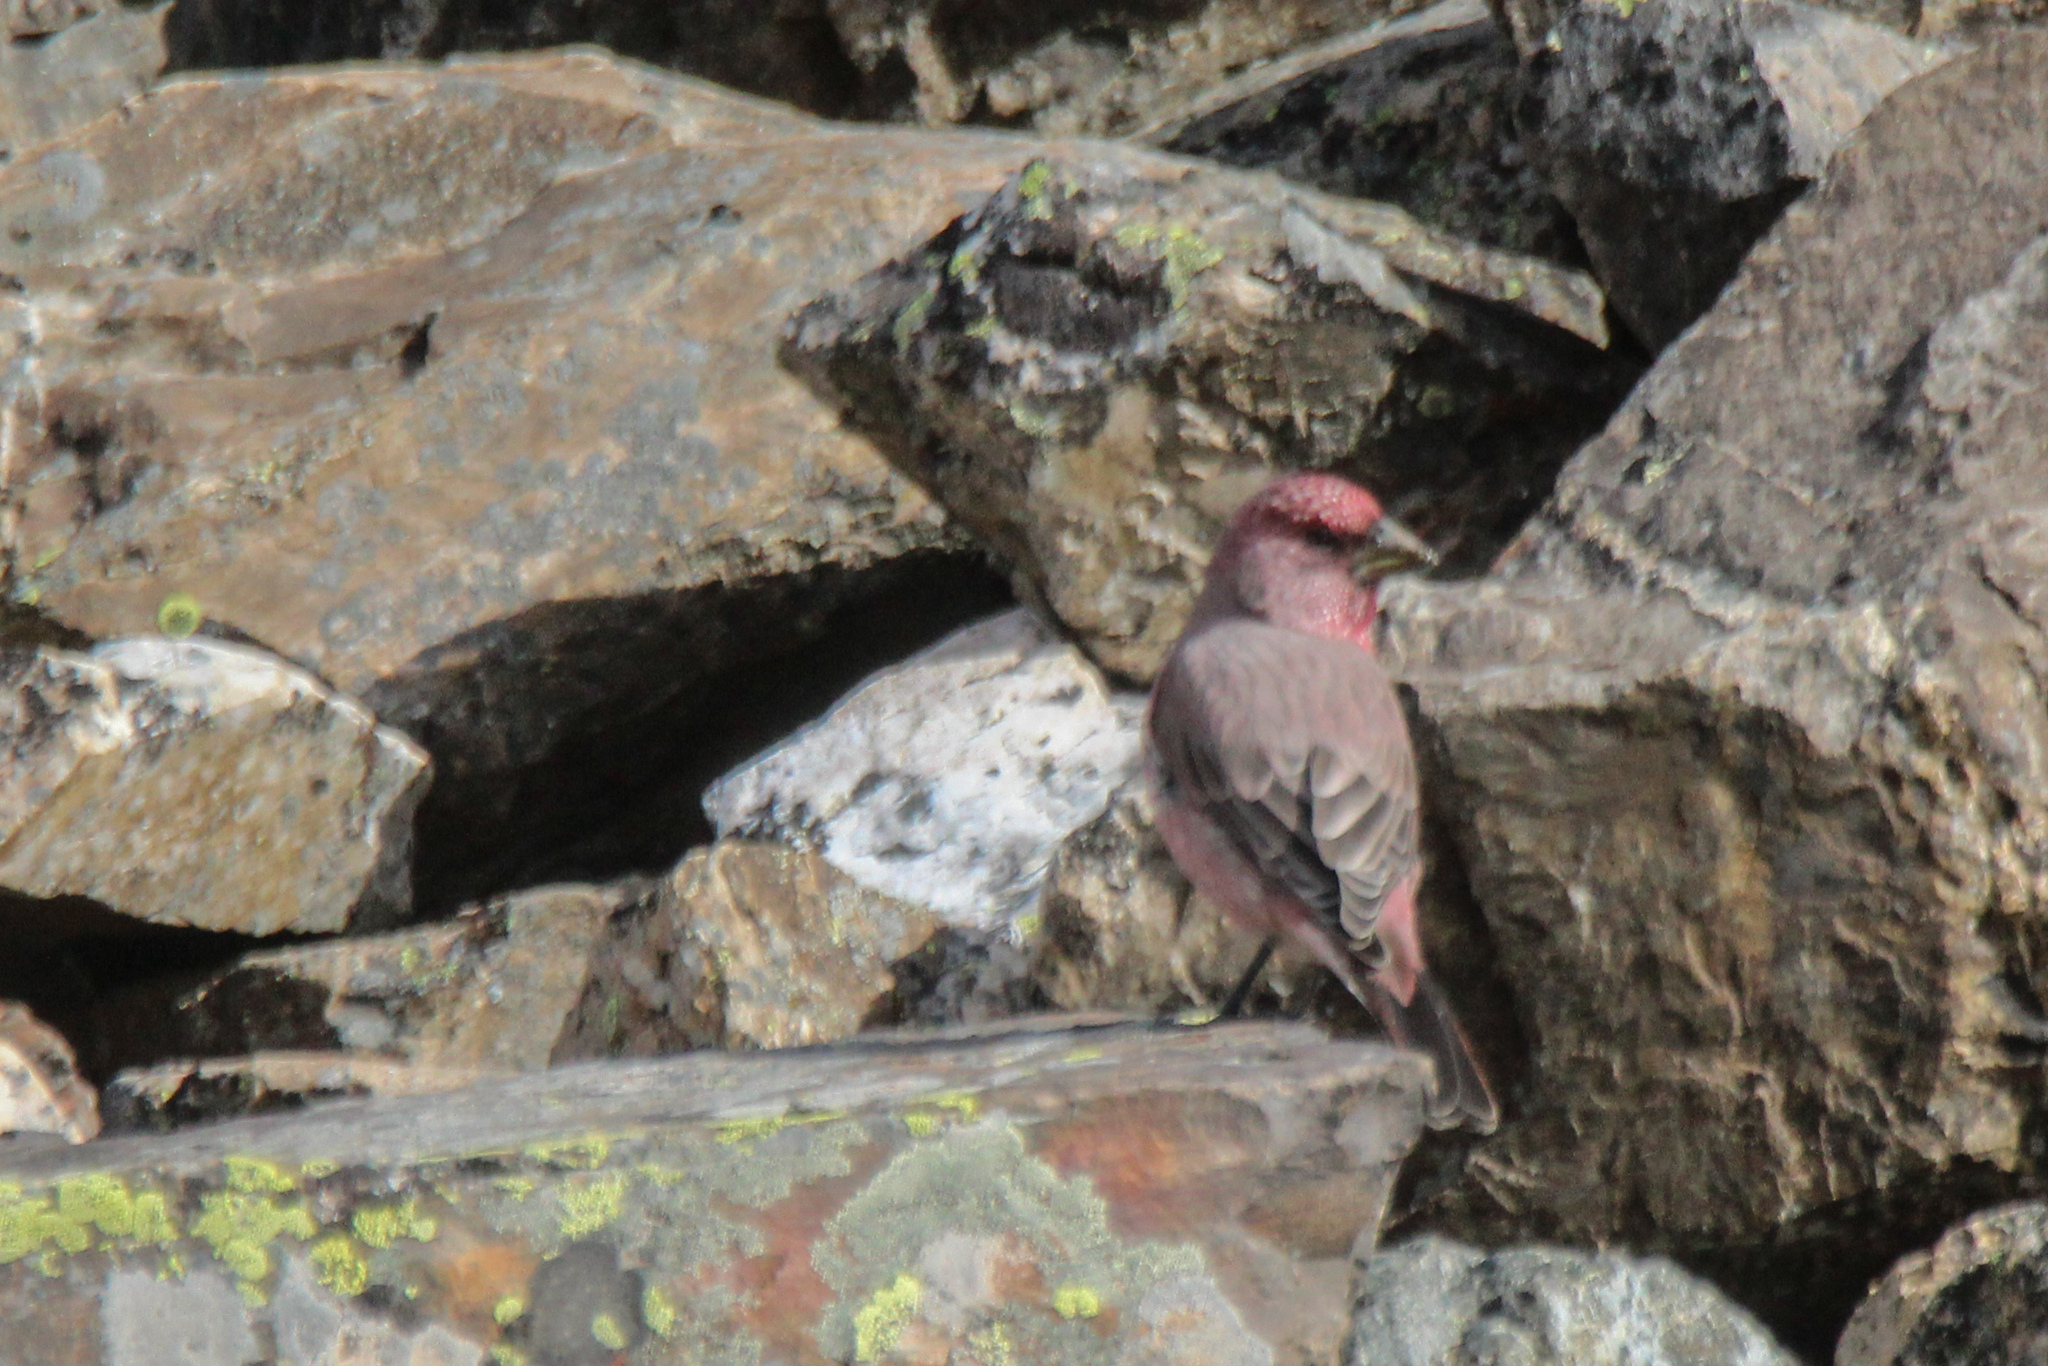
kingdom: Animalia
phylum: Chordata
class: Aves
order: Passeriformes
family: Fringillidae
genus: Carpodacus
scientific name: Carpodacus rubicilla
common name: Great rosefinch
